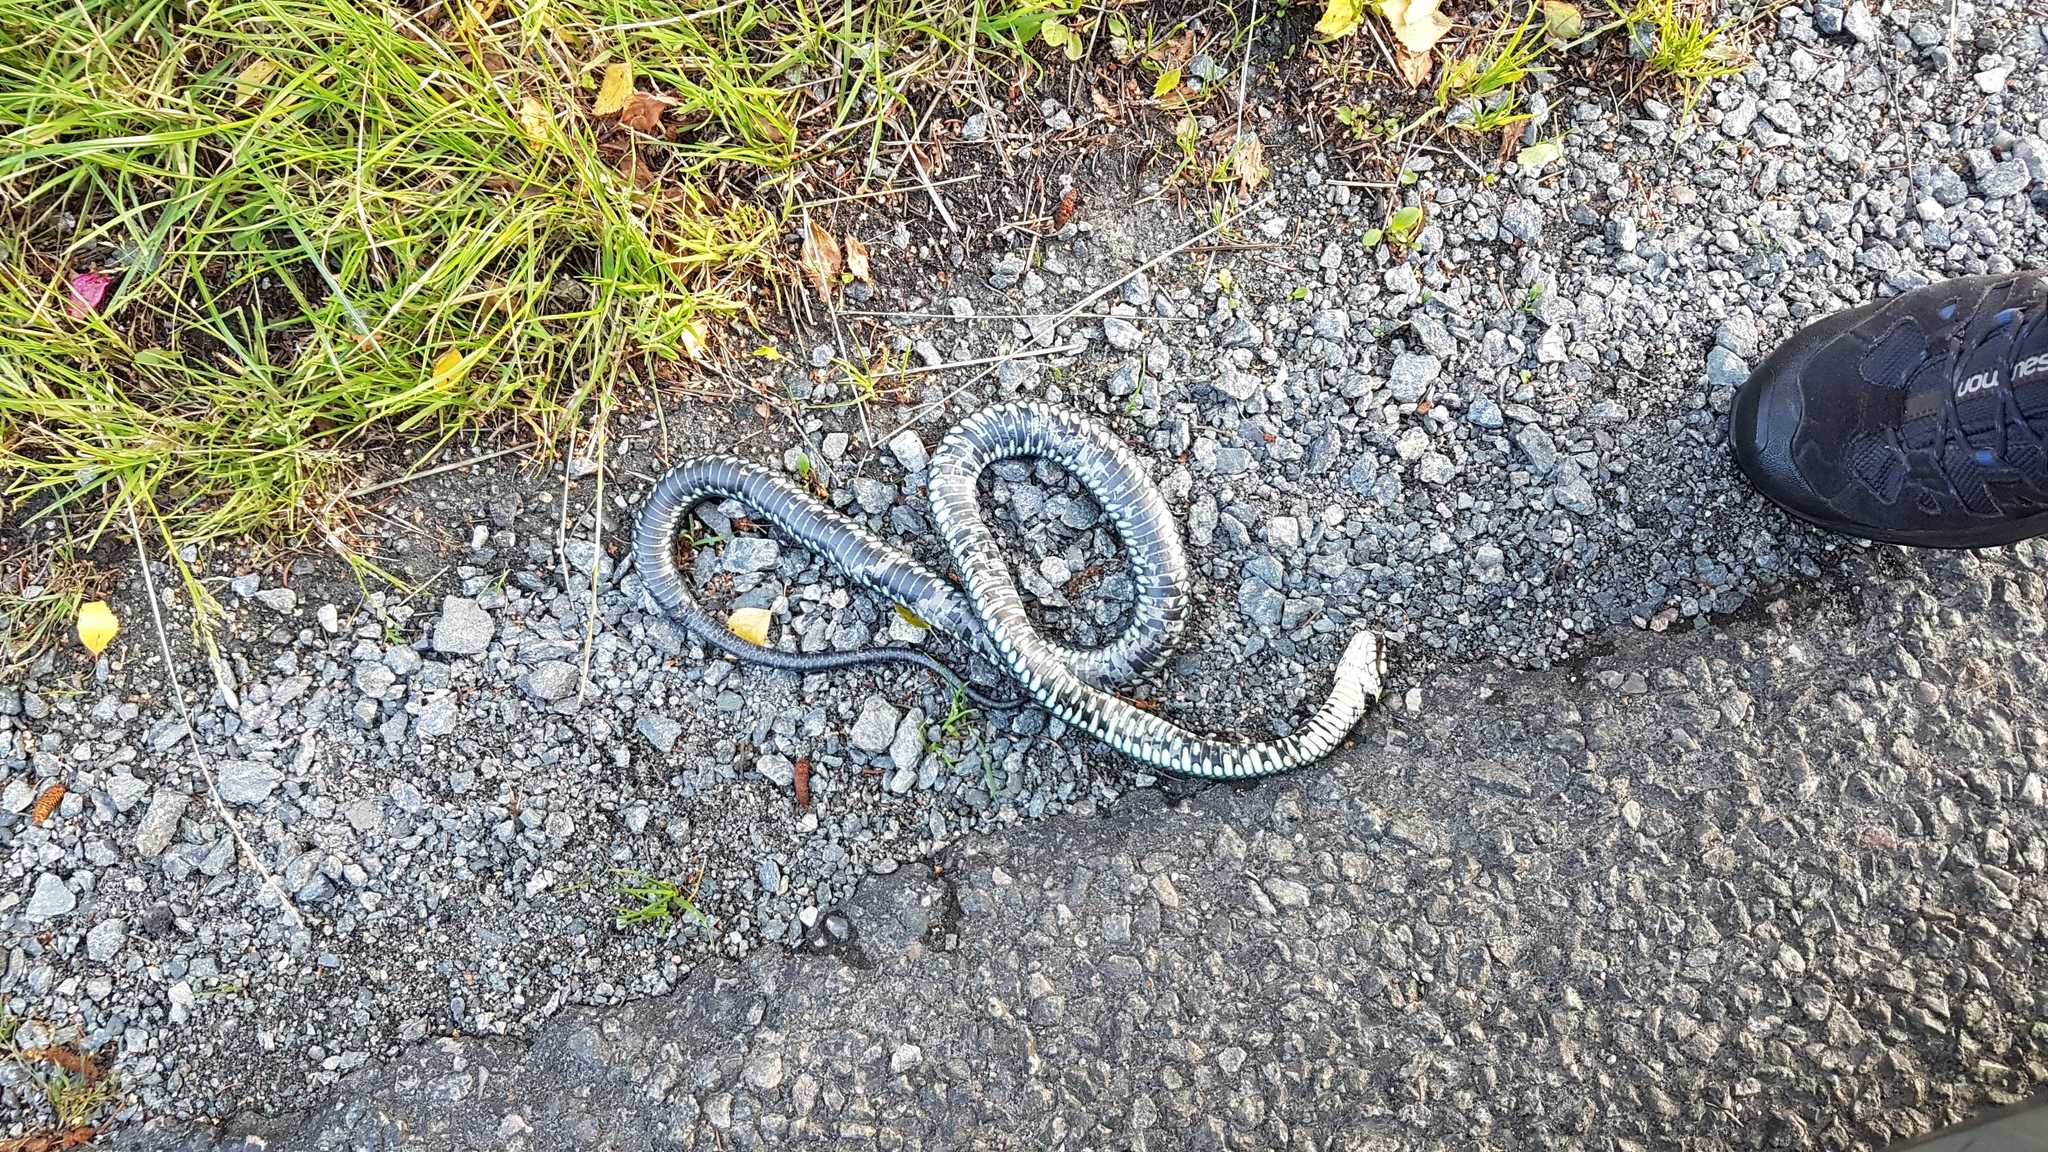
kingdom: Animalia
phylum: Chordata
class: Squamata
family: Colubridae
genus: Natrix
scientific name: Natrix natrix
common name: Grass snake
